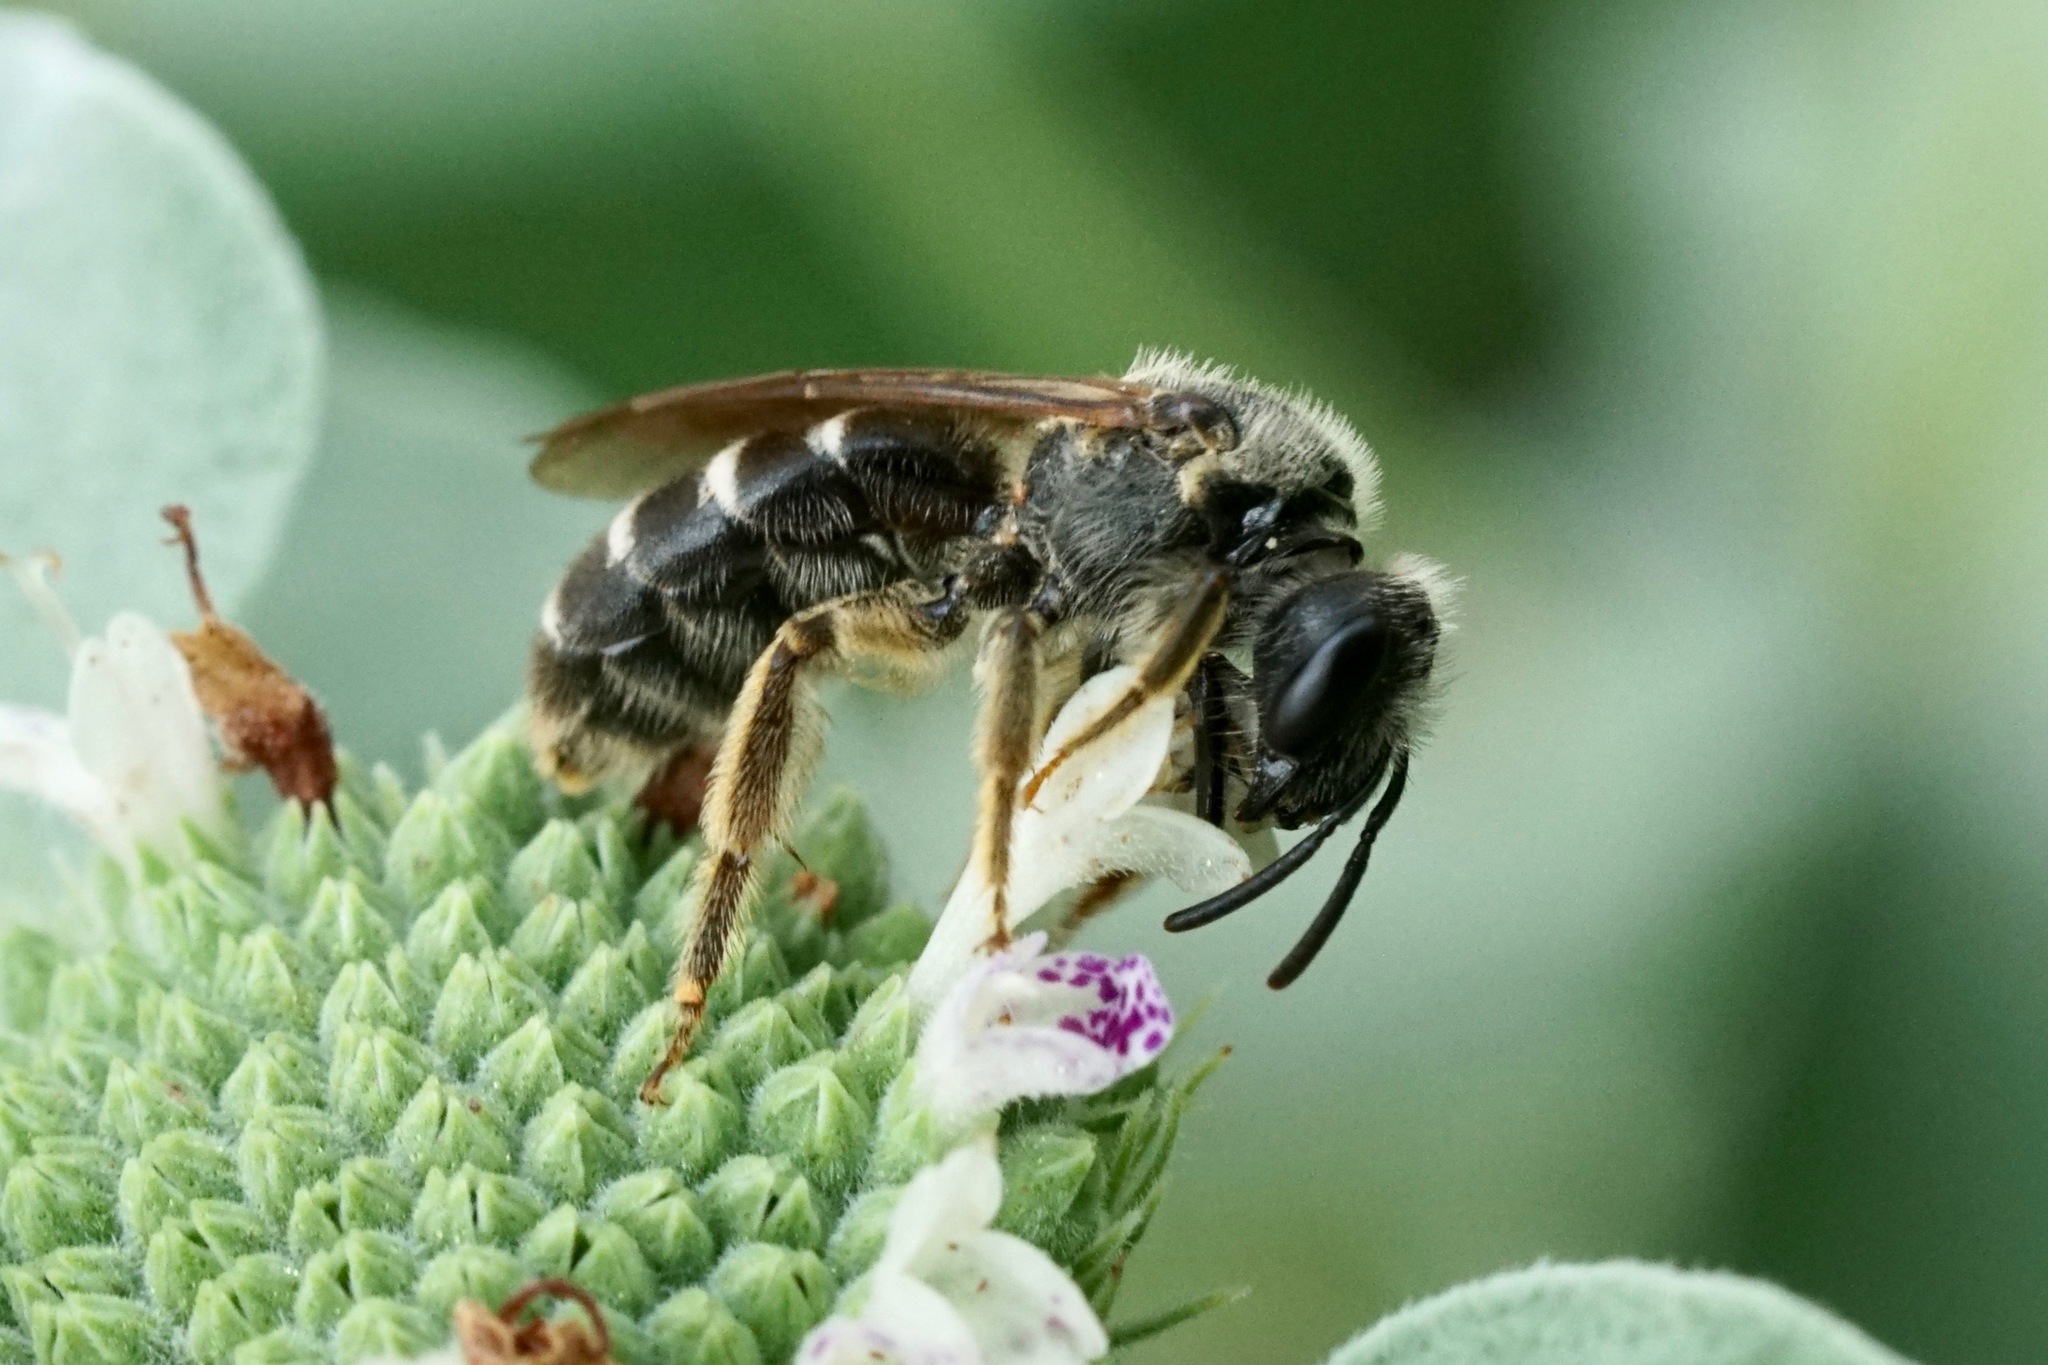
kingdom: Animalia
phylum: Arthropoda
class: Insecta
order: Hymenoptera
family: Halictidae
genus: Halictus
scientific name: Halictus rubicundus
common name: Orange-legged furrow bee
